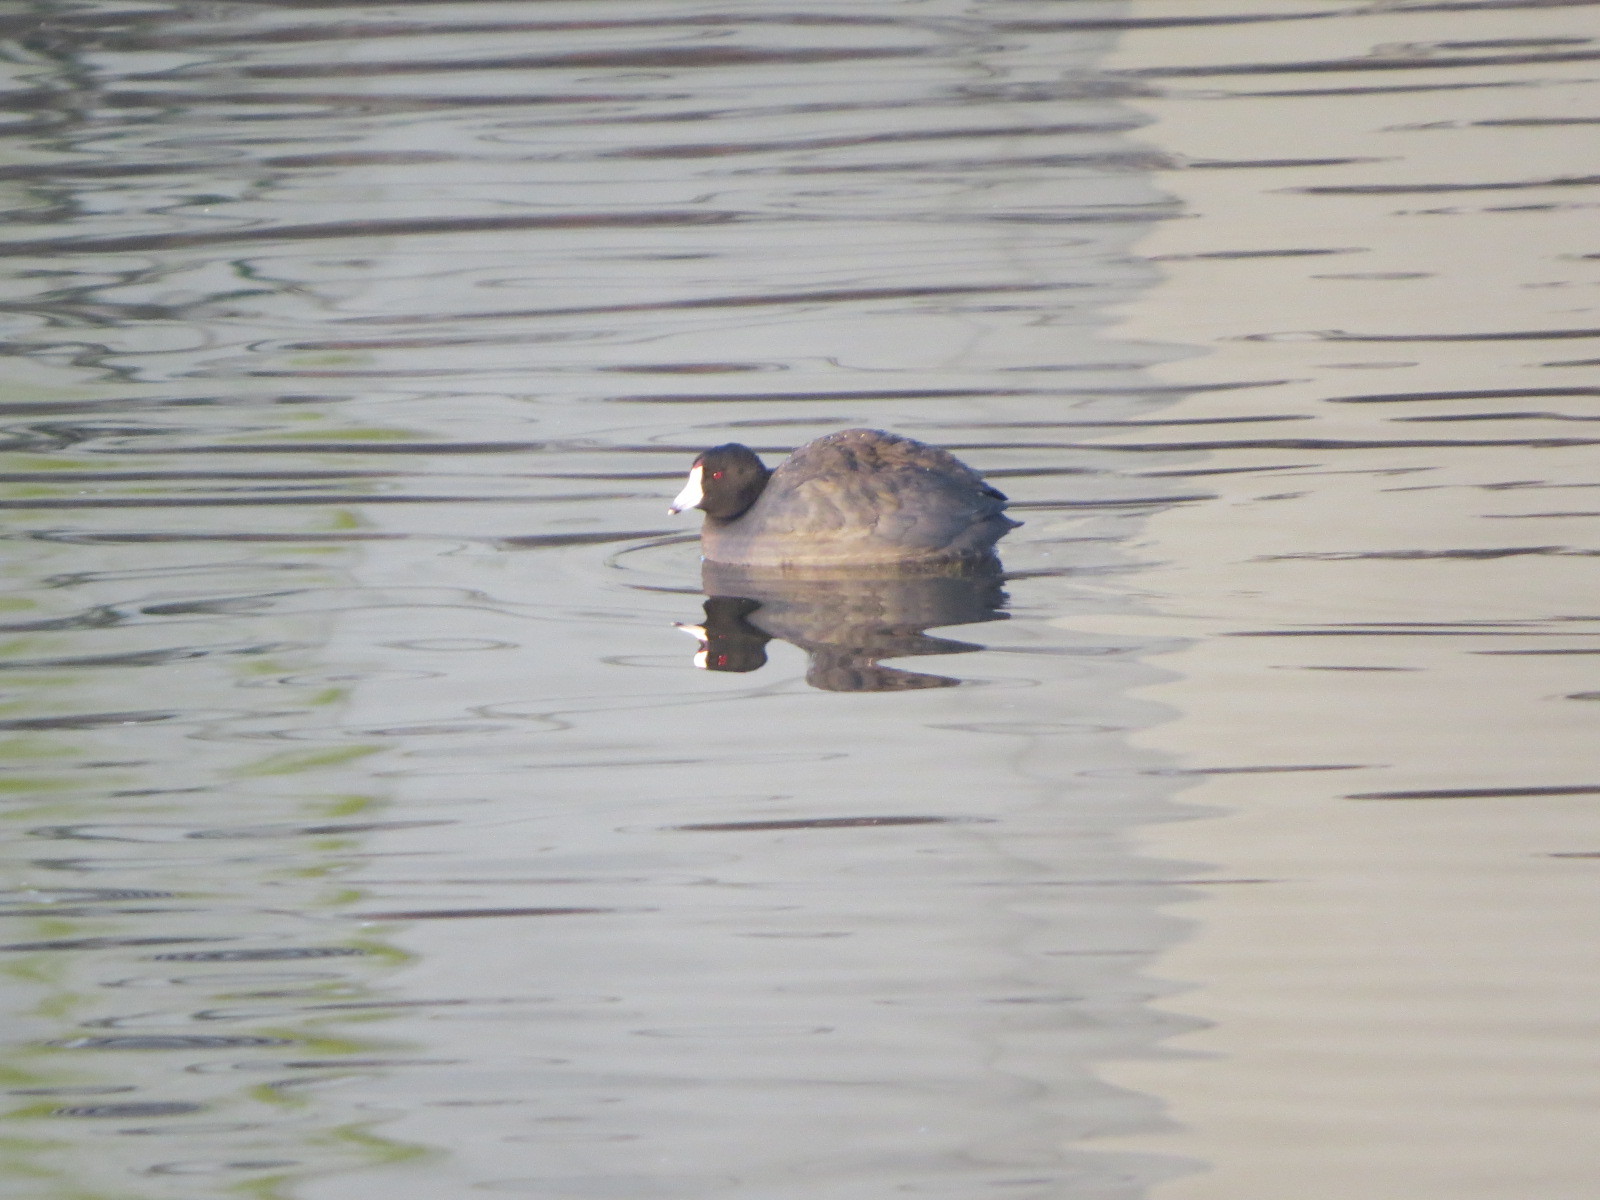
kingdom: Animalia
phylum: Chordata
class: Aves
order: Gruiformes
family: Rallidae
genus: Fulica
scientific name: Fulica americana
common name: American coot
